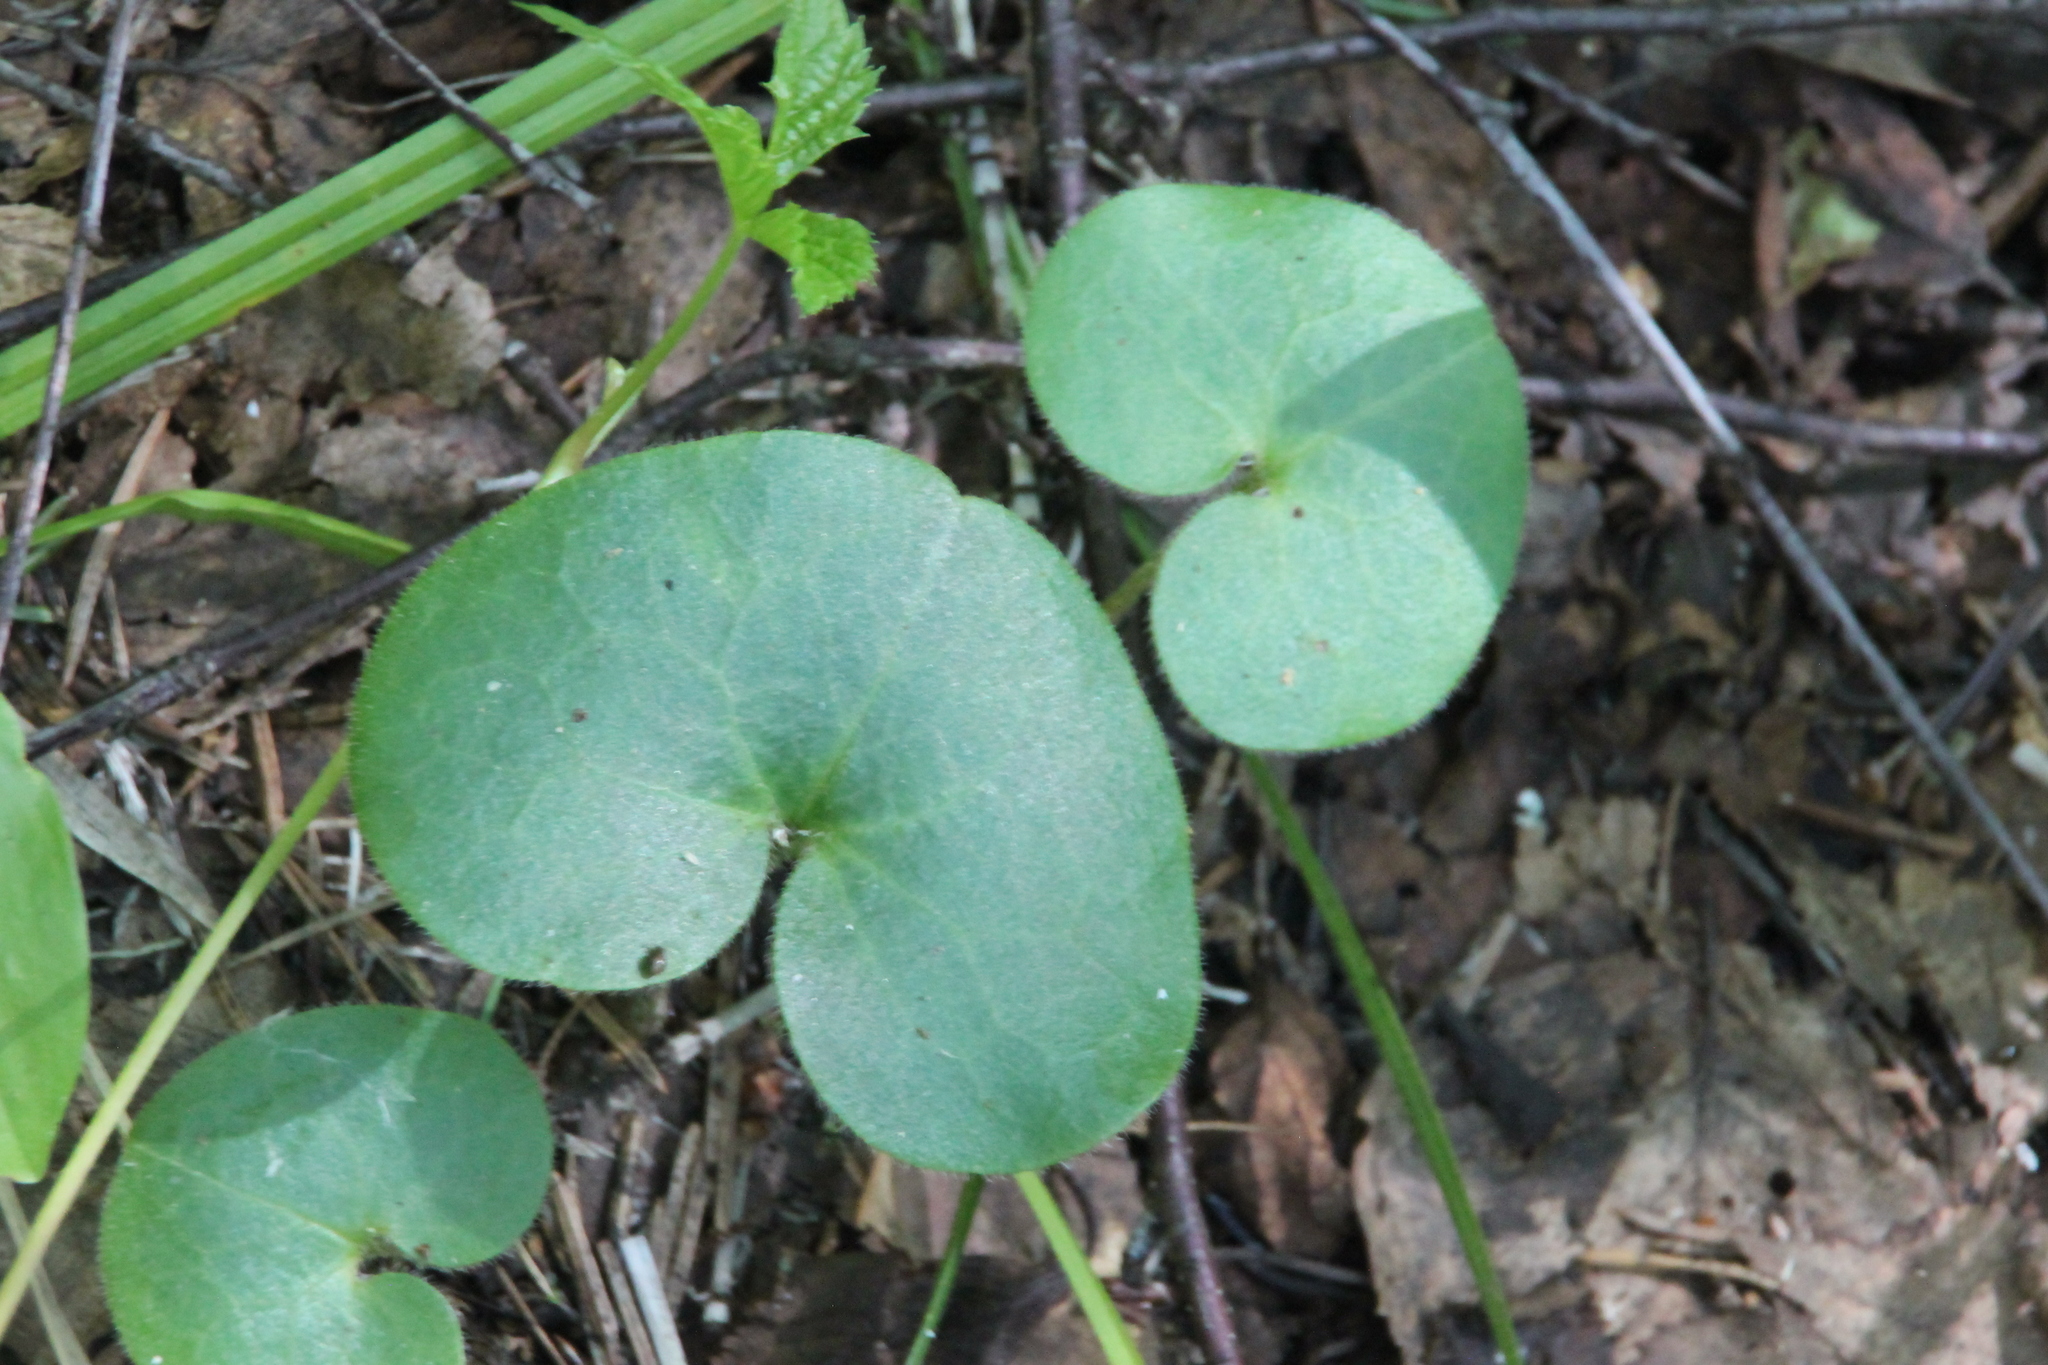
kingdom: Plantae
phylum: Tracheophyta
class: Magnoliopsida
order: Piperales
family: Aristolochiaceae
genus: Asarum
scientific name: Asarum europaeum
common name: Asarabacca
